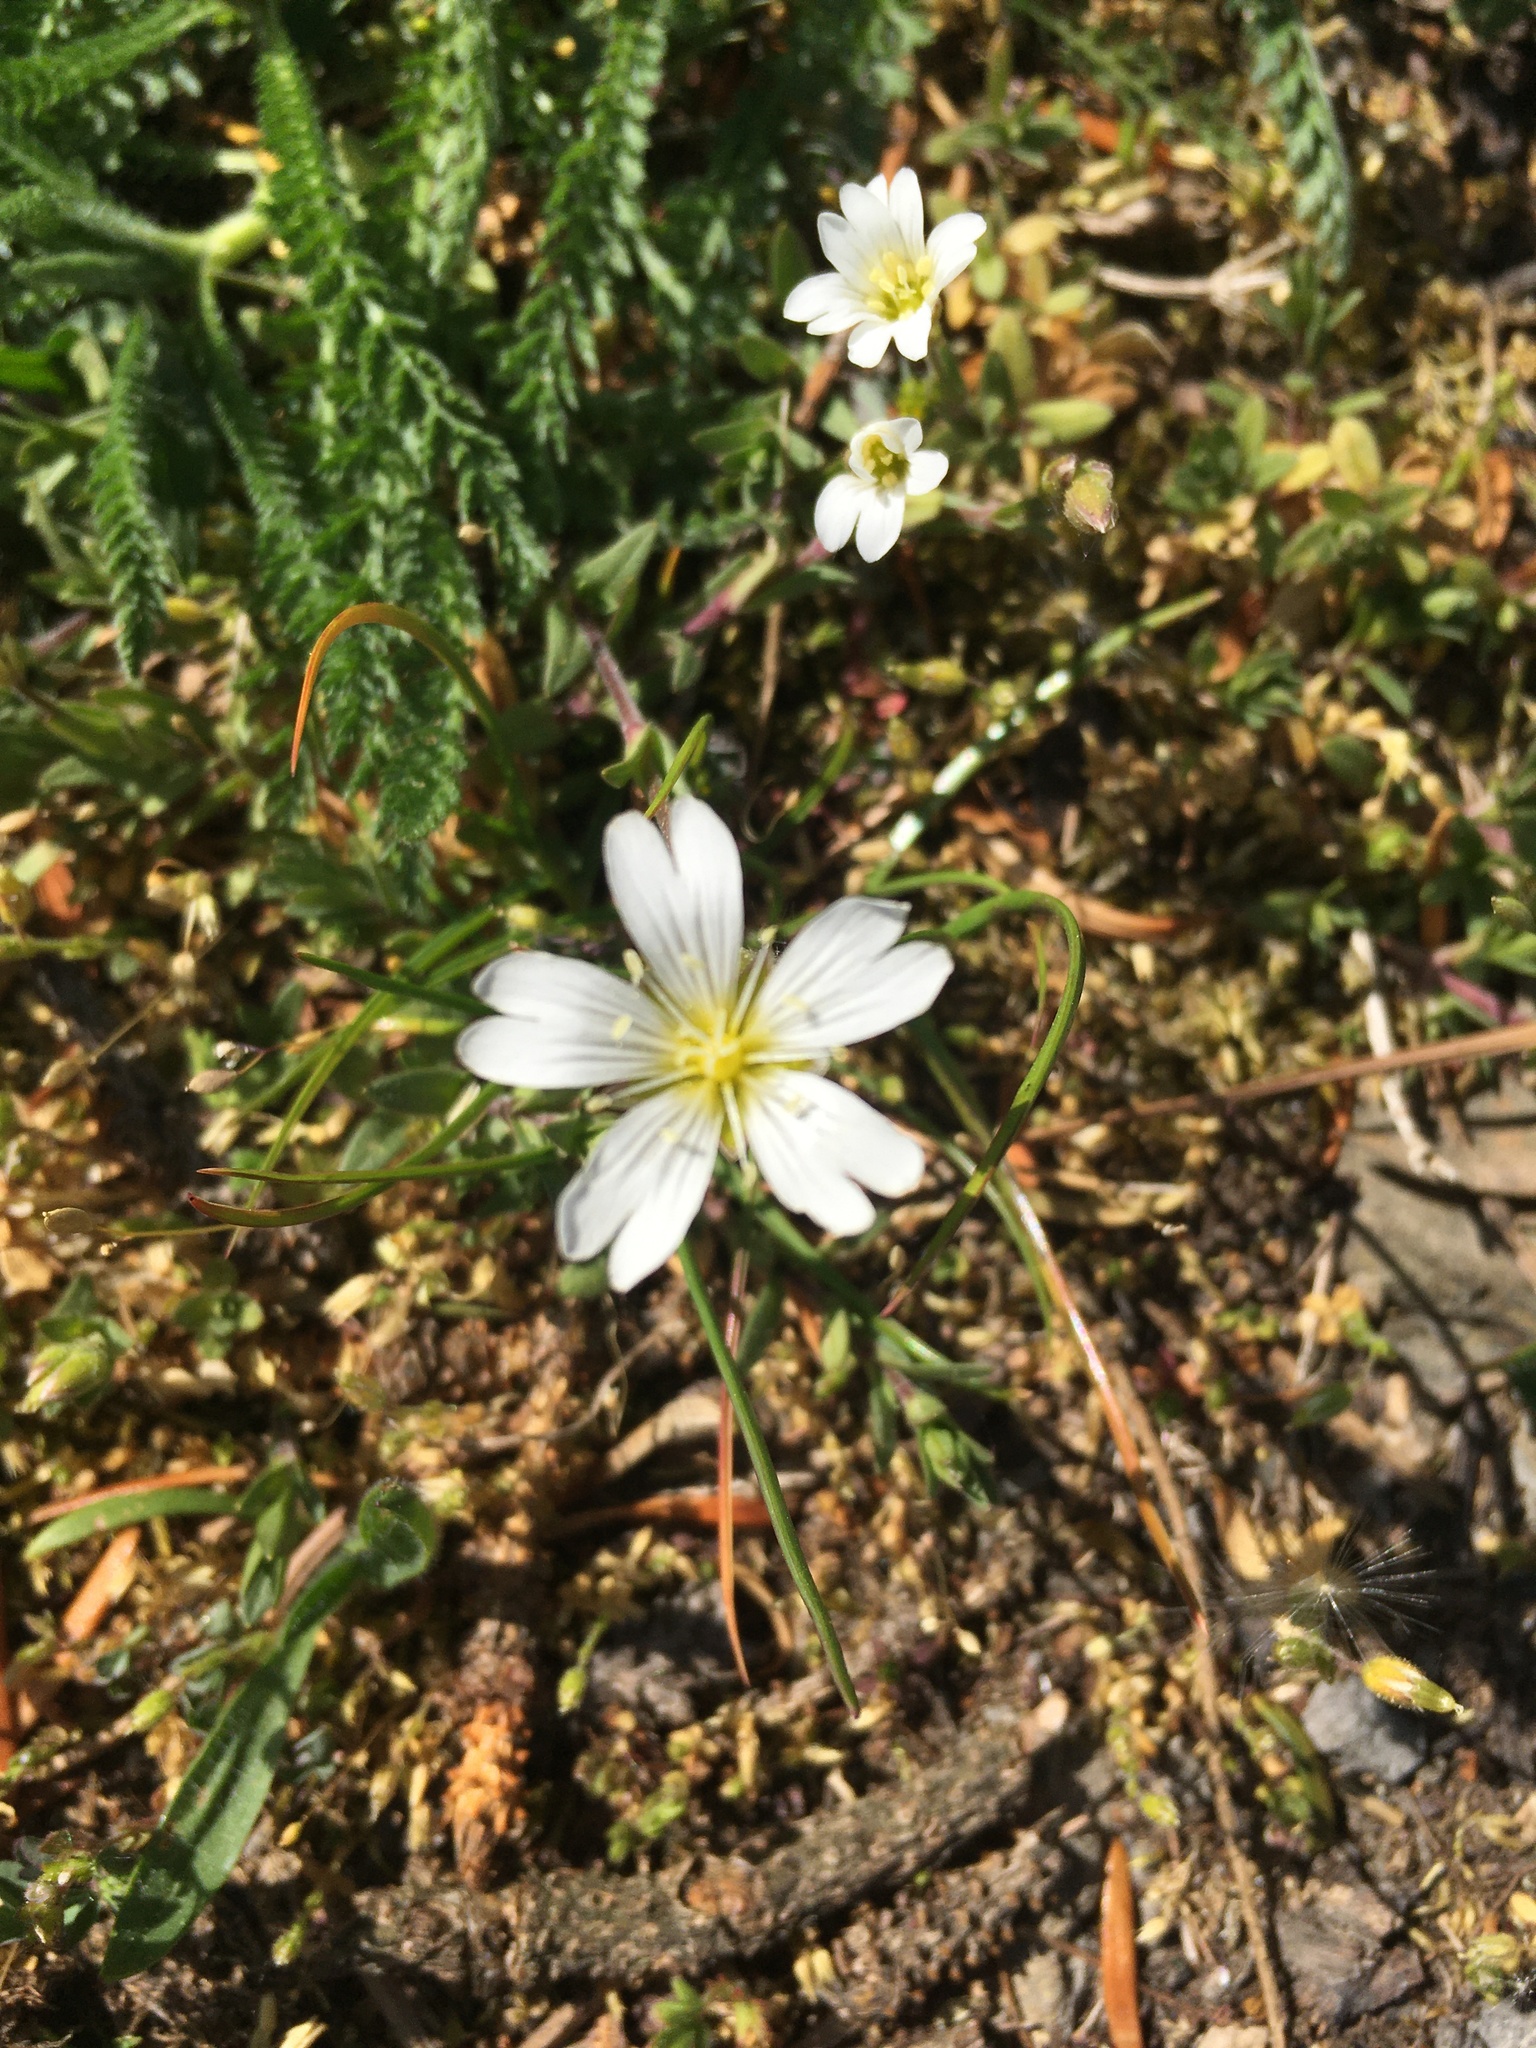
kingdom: Plantae
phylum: Tracheophyta
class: Magnoliopsida
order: Caryophyllales
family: Caryophyllaceae
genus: Cerastium
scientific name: Cerastium arvense
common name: Field mouse-ear
